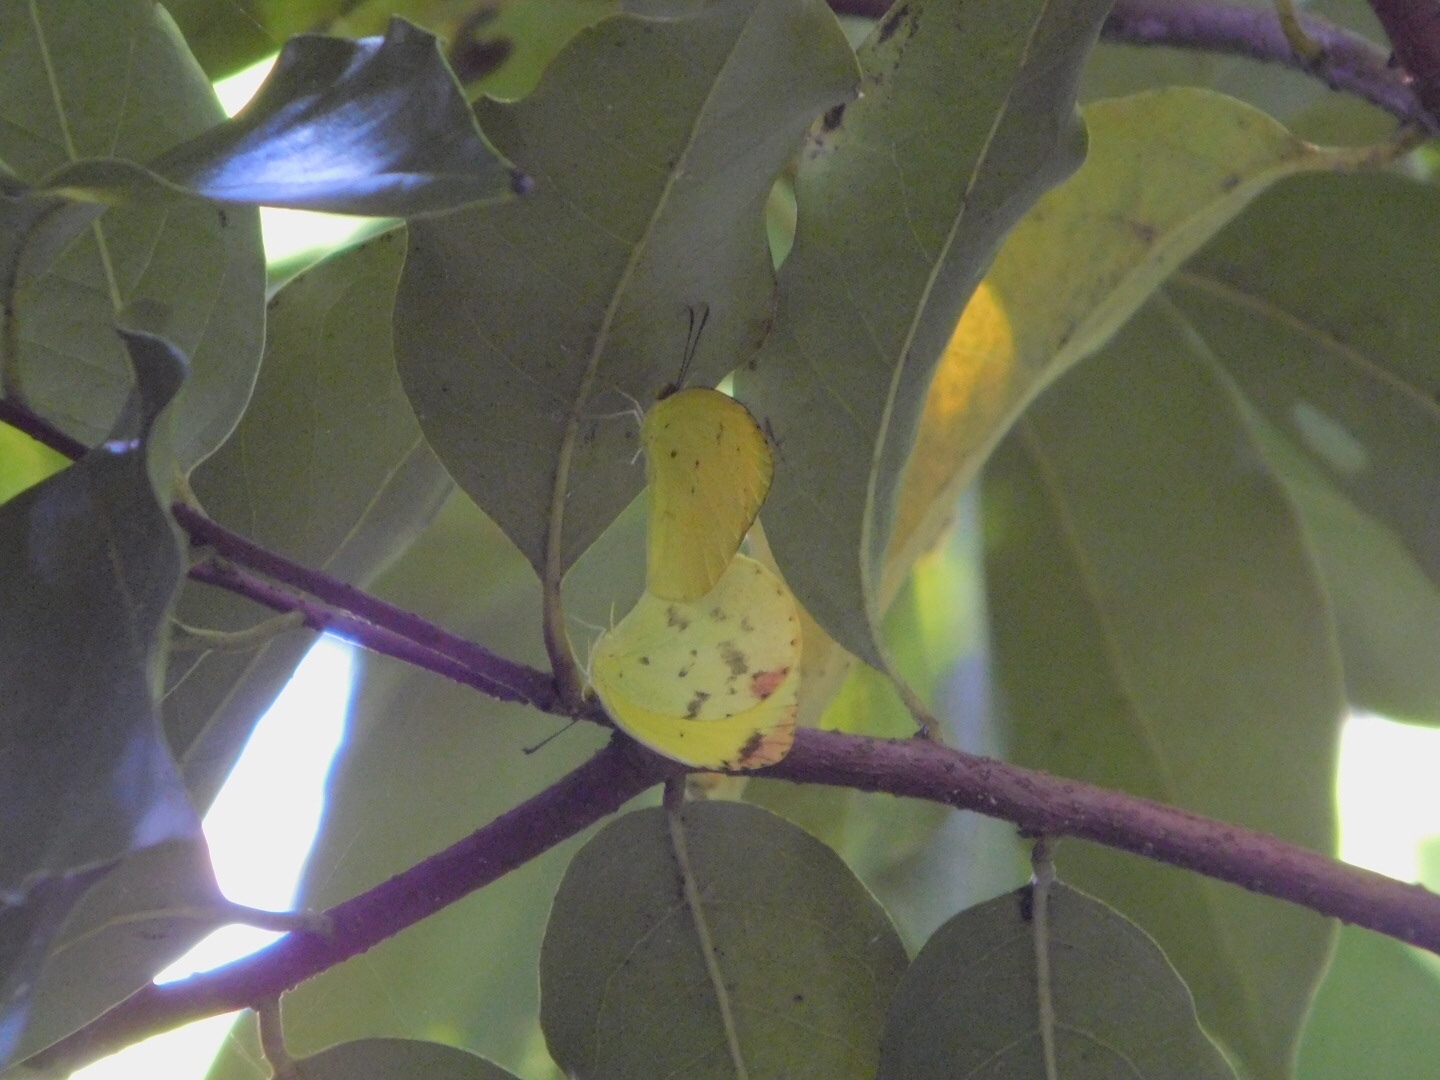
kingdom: Animalia
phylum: Arthropoda
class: Insecta
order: Lepidoptera
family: Pieridae
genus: Pyrisitia
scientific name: Pyrisitia lisa
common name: Little yellow
